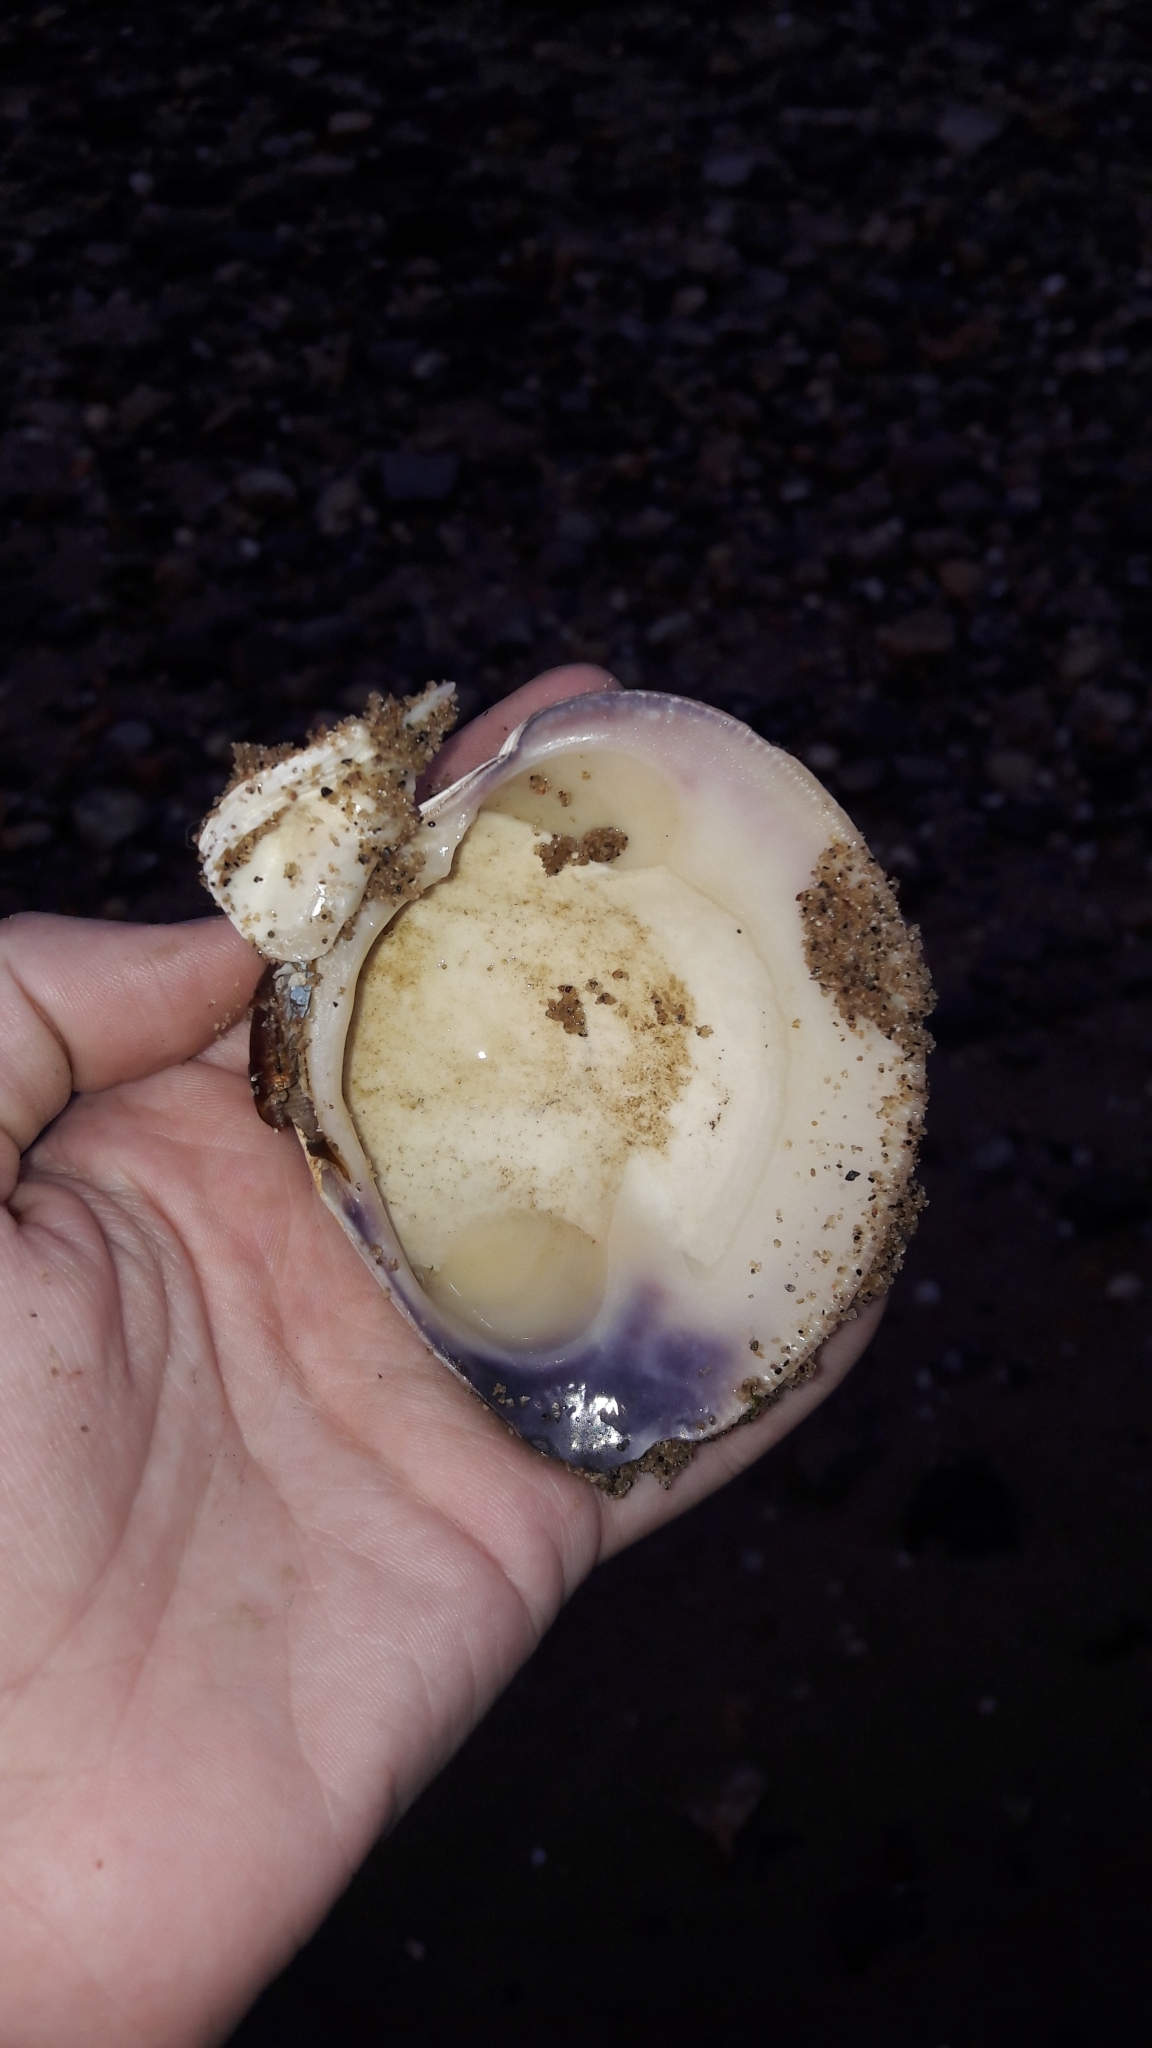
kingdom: Animalia
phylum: Mollusca
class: Bivalvia
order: Venerida
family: Veneridae
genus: Mercenaria
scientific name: Mercenaria mercenaria
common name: American hard-shelled clam
